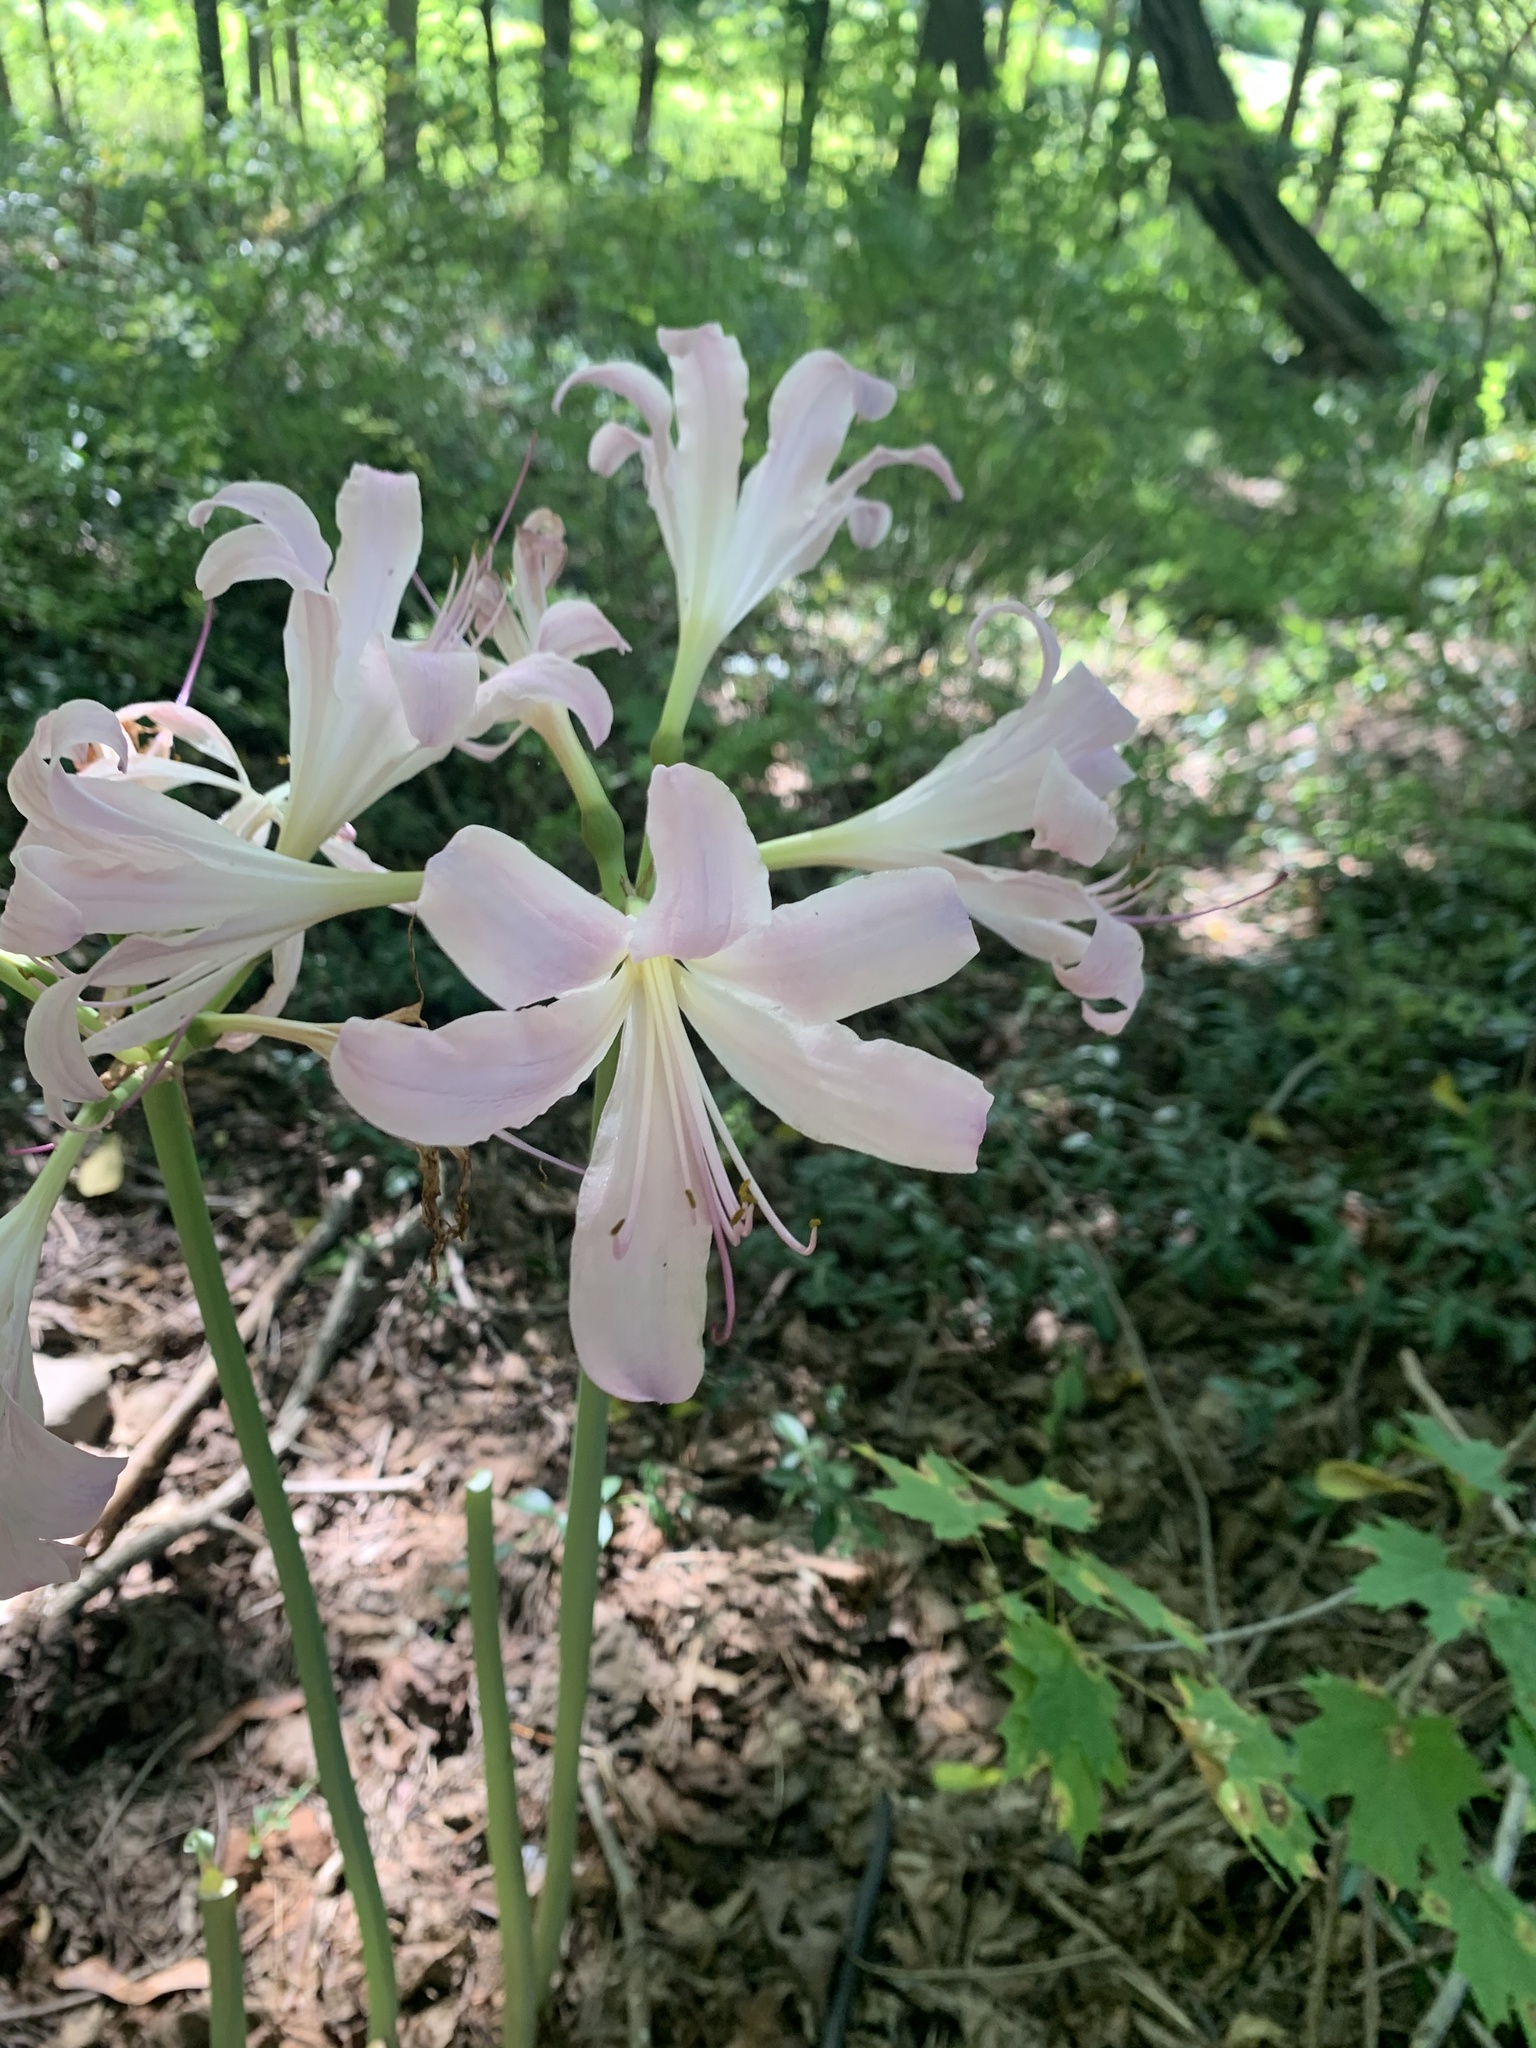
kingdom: Plantae
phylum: Tracheophyta
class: Liliopsida
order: Asparagales
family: Amaryllidaceae
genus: Lycoris
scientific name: Lycoris squamigera
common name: Magic-lily
